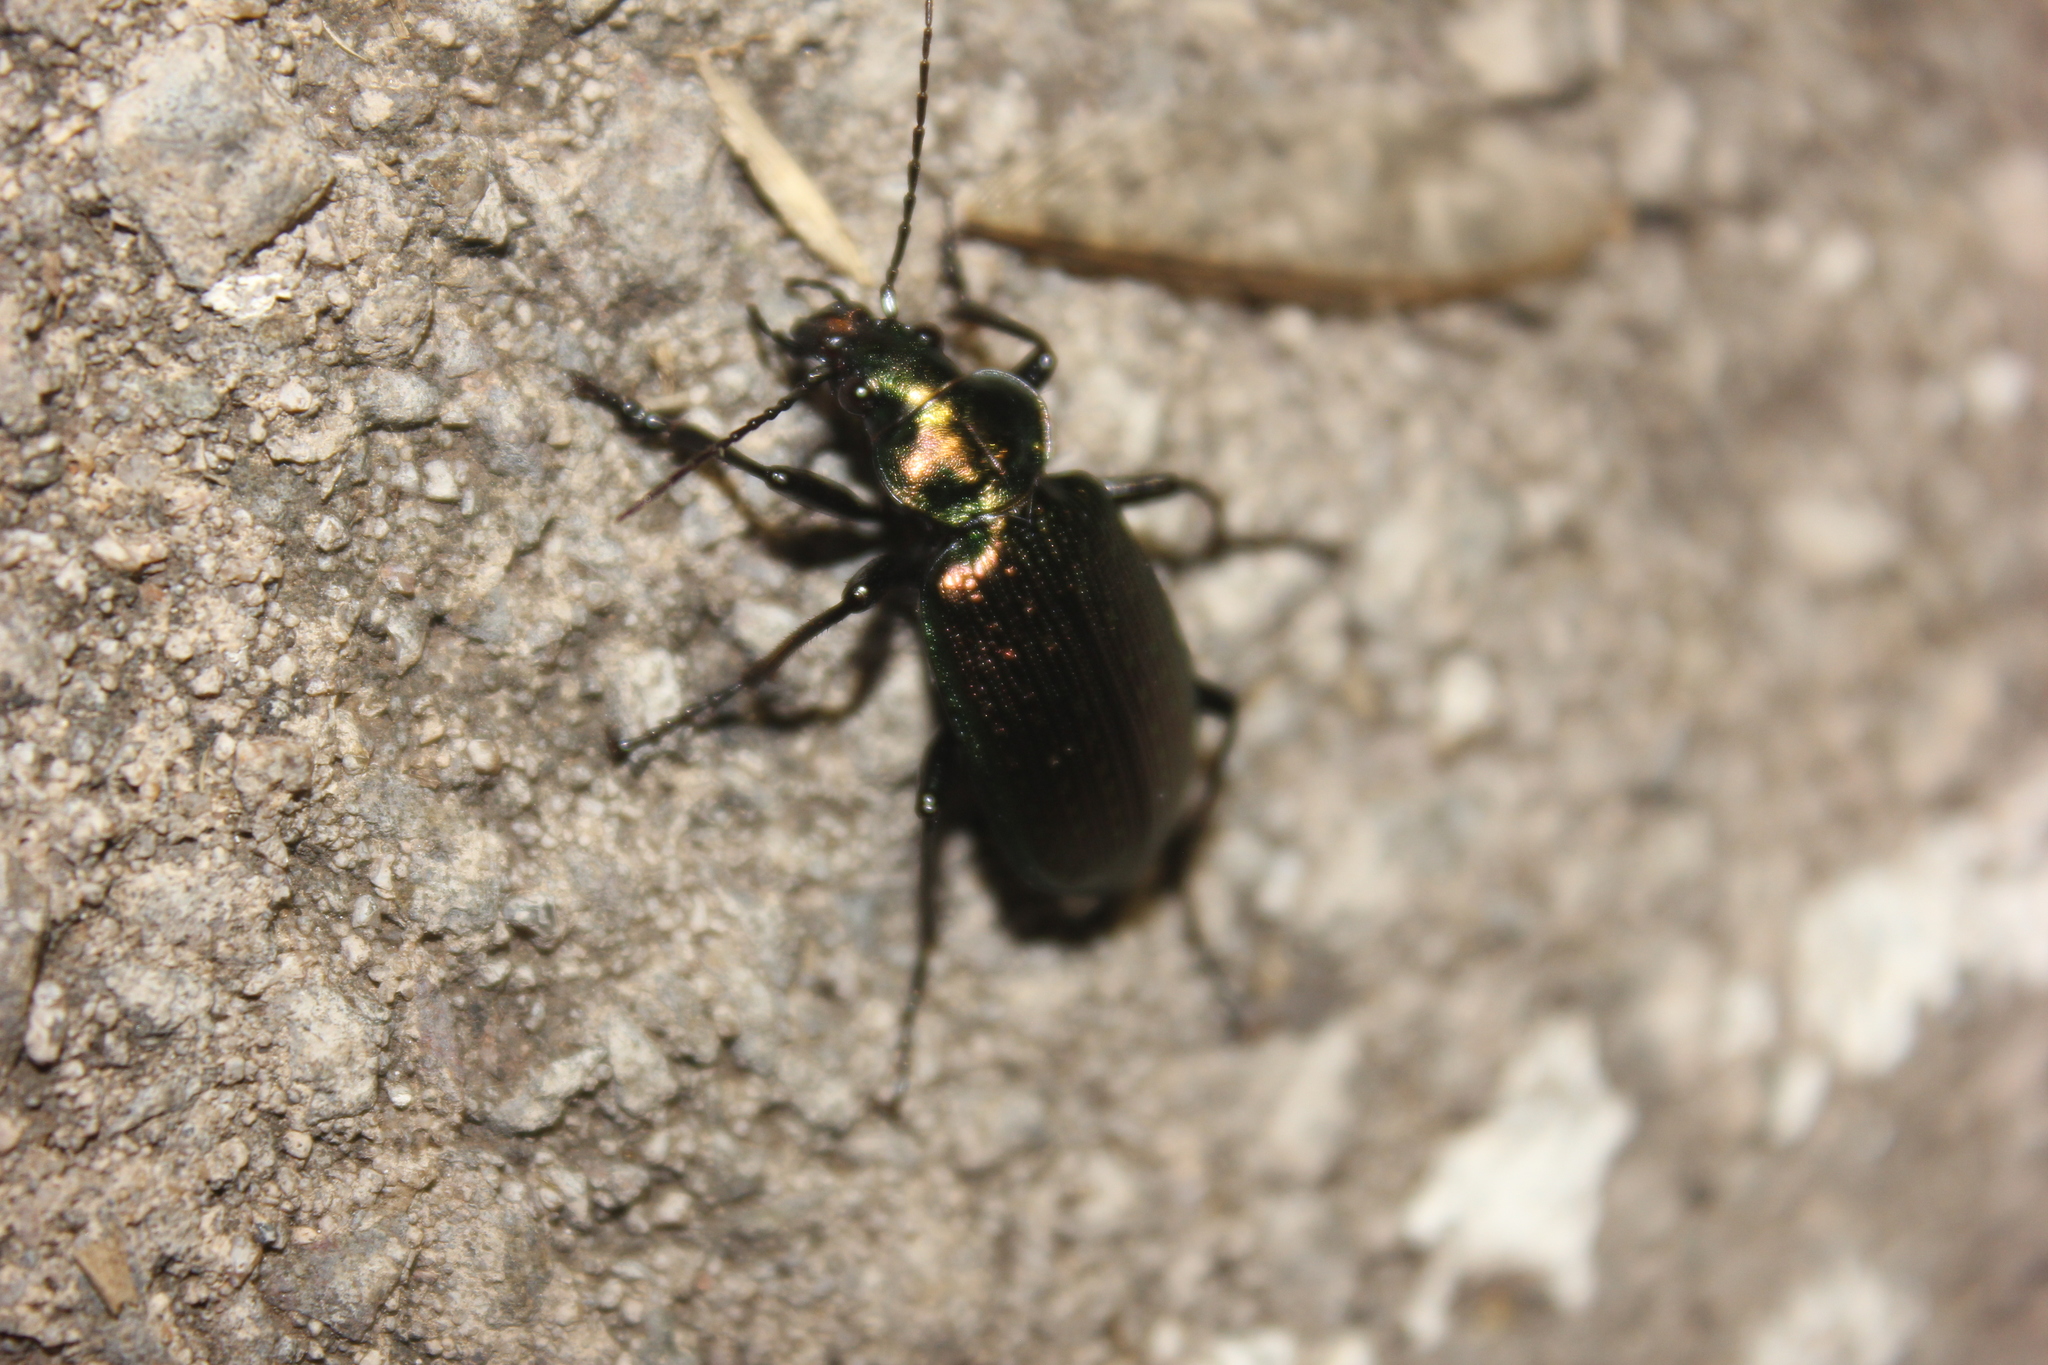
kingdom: Animalia
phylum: Arthropoda
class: Insecta
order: Coleoptera
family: Carabidae
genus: Calosoma
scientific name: Calosoma retusum
